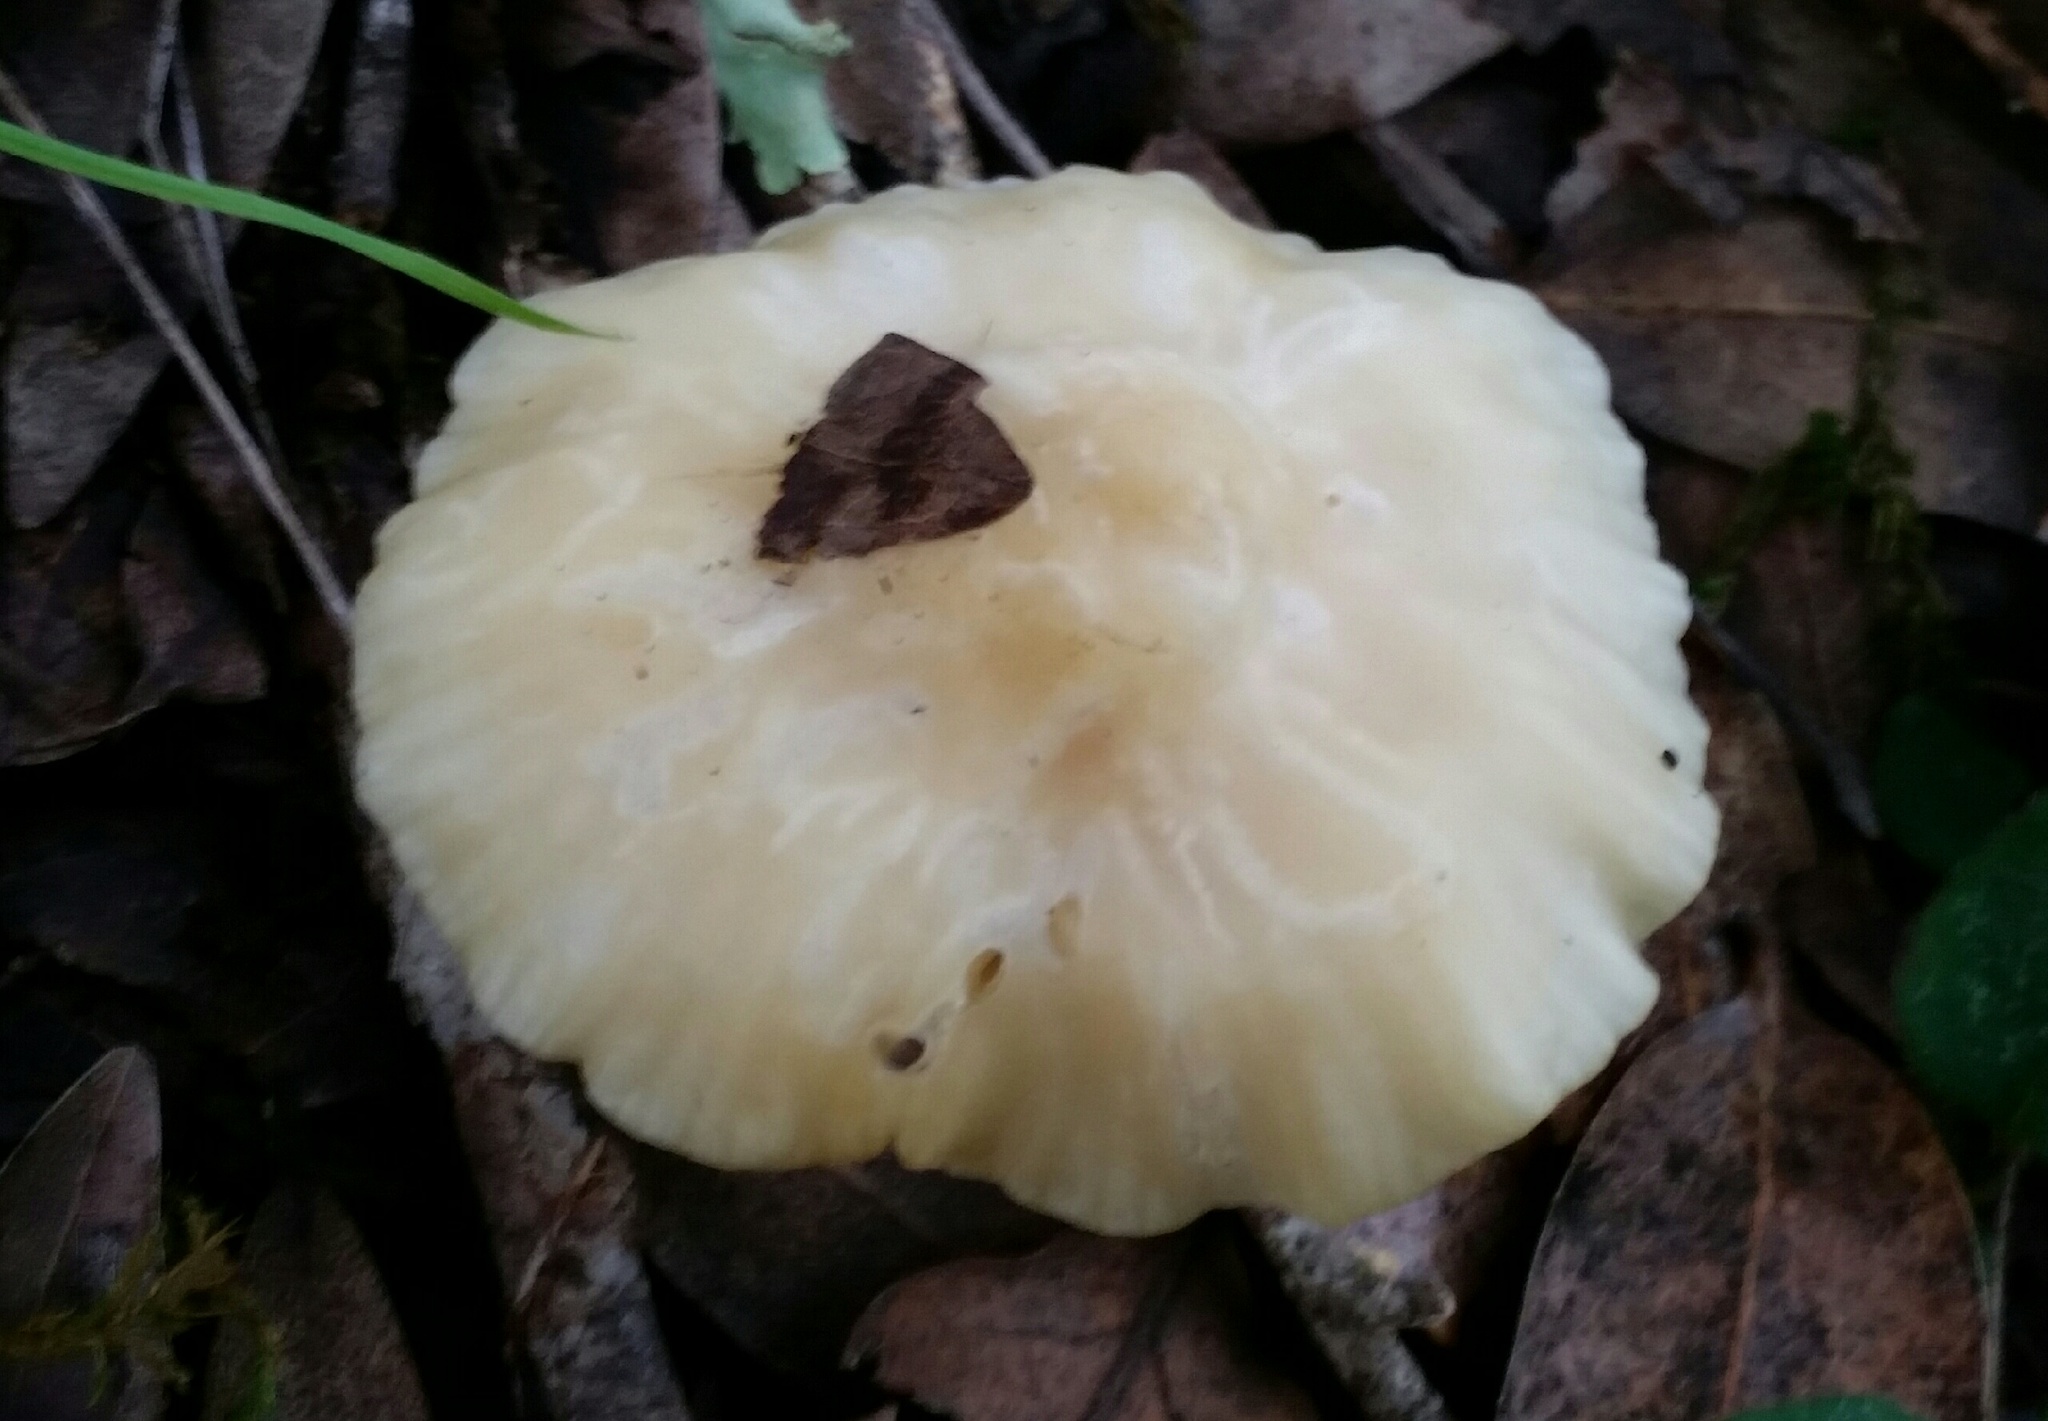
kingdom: Fungi
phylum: Basidiomycota
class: Agaricomycetes
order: Agaricales
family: Hygrophoraceae
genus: Cuphophyllus
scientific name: Cuphophyllus virgineus
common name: Snowy waxcap
